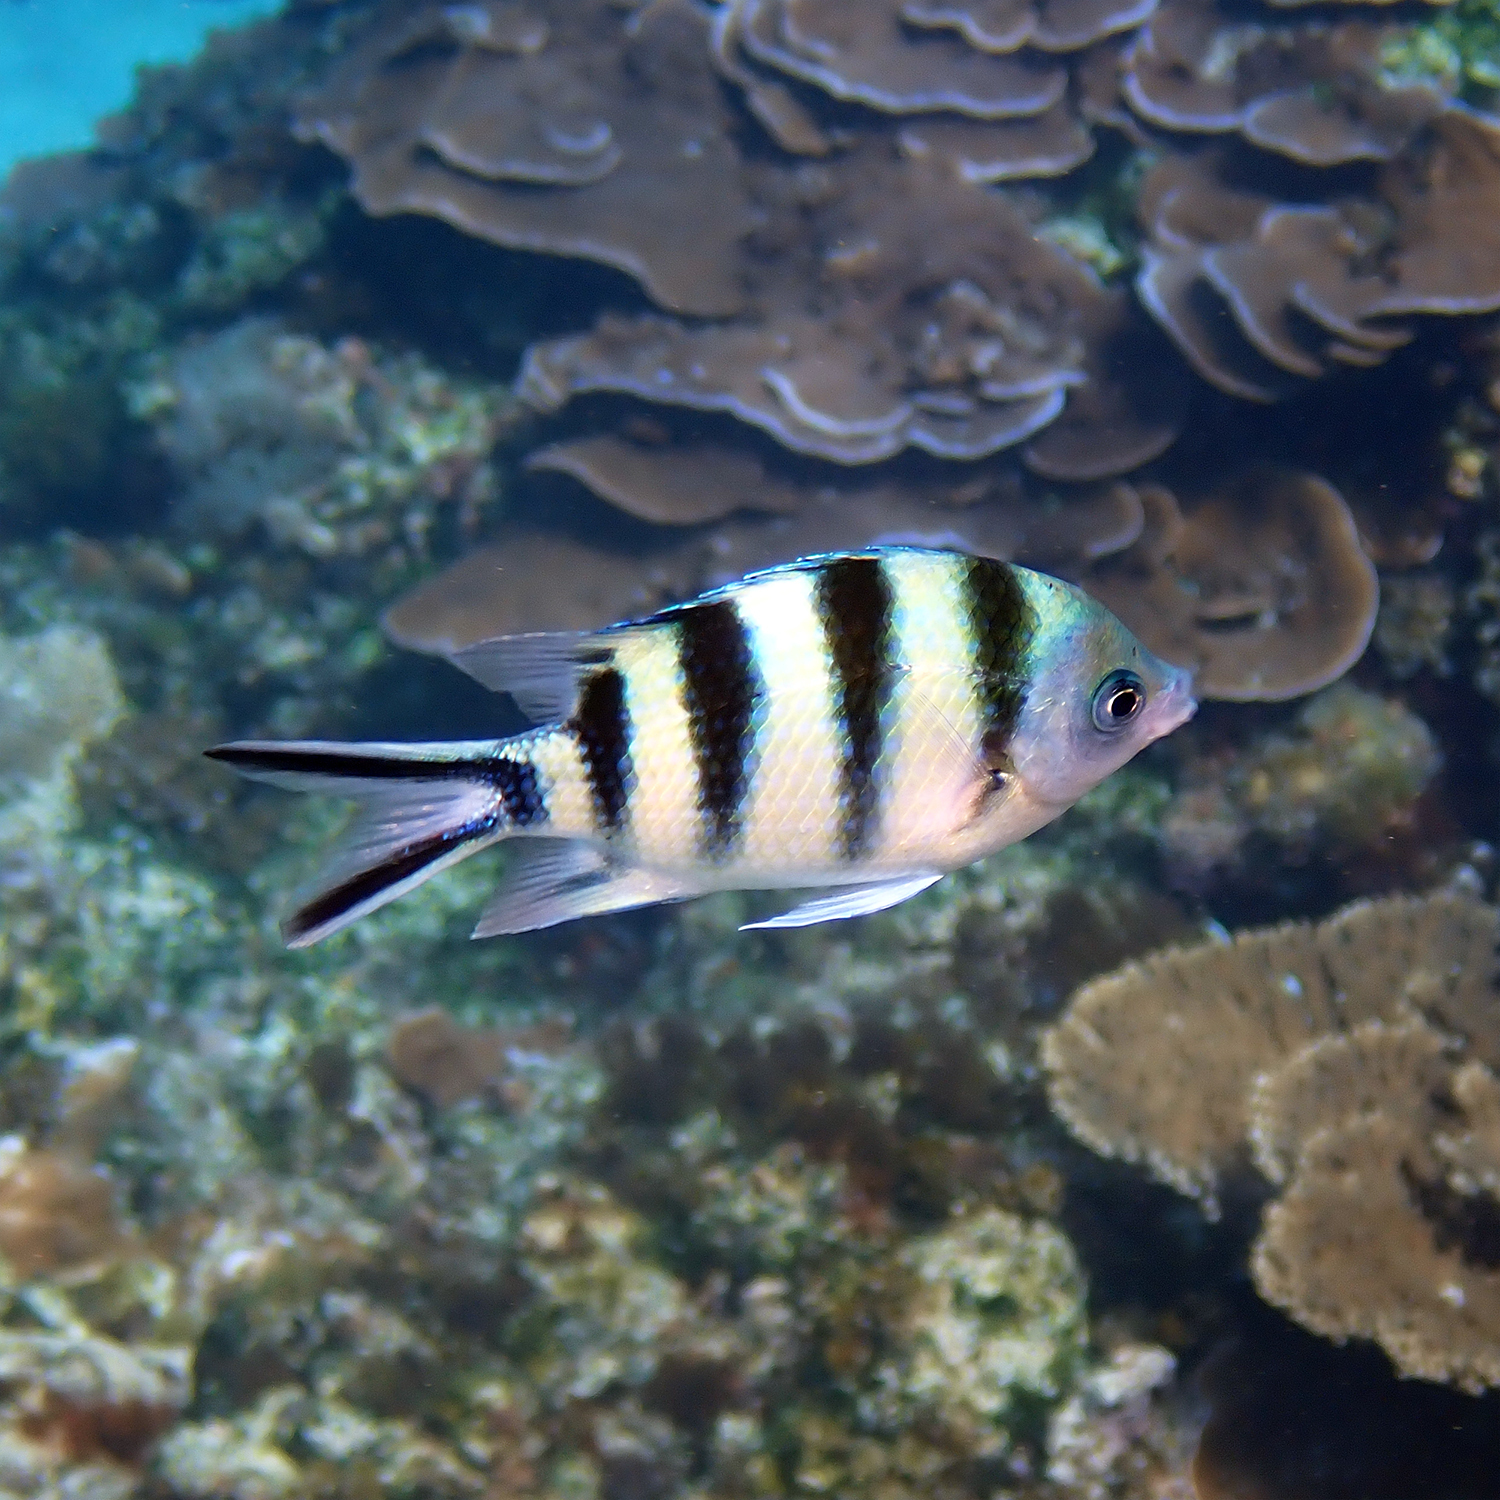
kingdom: Animalia
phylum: Chordata
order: Perciformes
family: Pomacentridae
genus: Abudefduf
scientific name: Abudefduf sexfasciatus
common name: Scissortail sergeant
